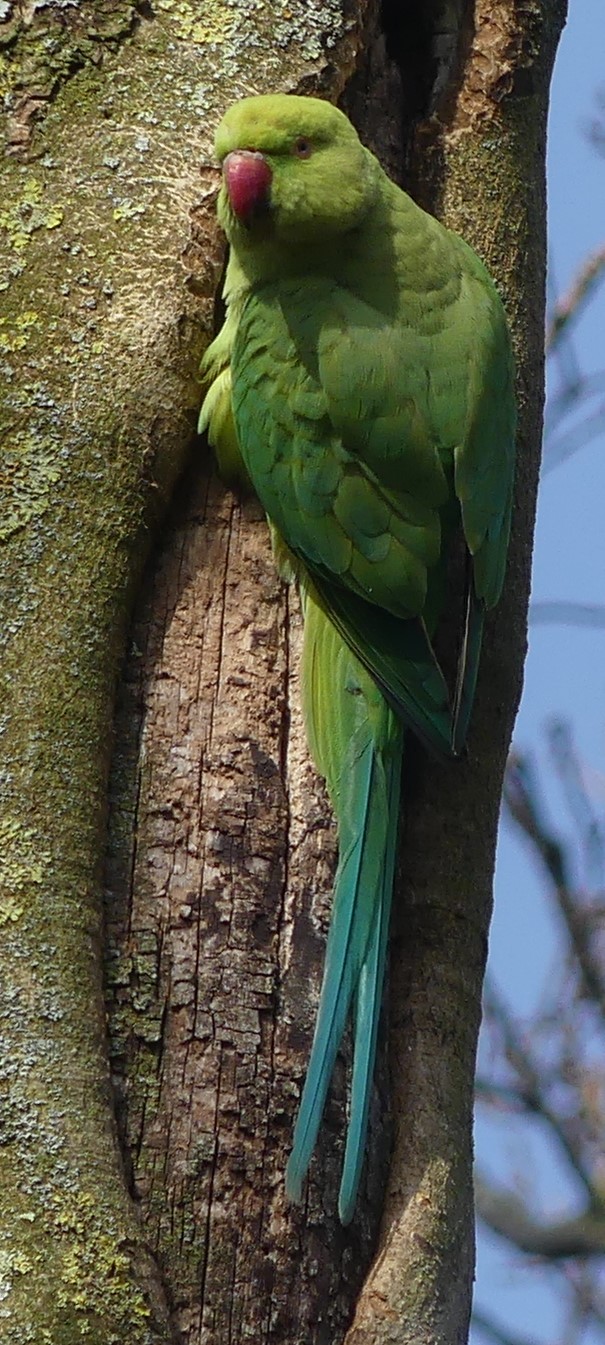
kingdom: Animalia
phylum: Chordata
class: Aves
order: Psittaciformes
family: Psittacidae
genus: Psittacula
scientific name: Psittacula krameri
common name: Rose-ringed parakeet
